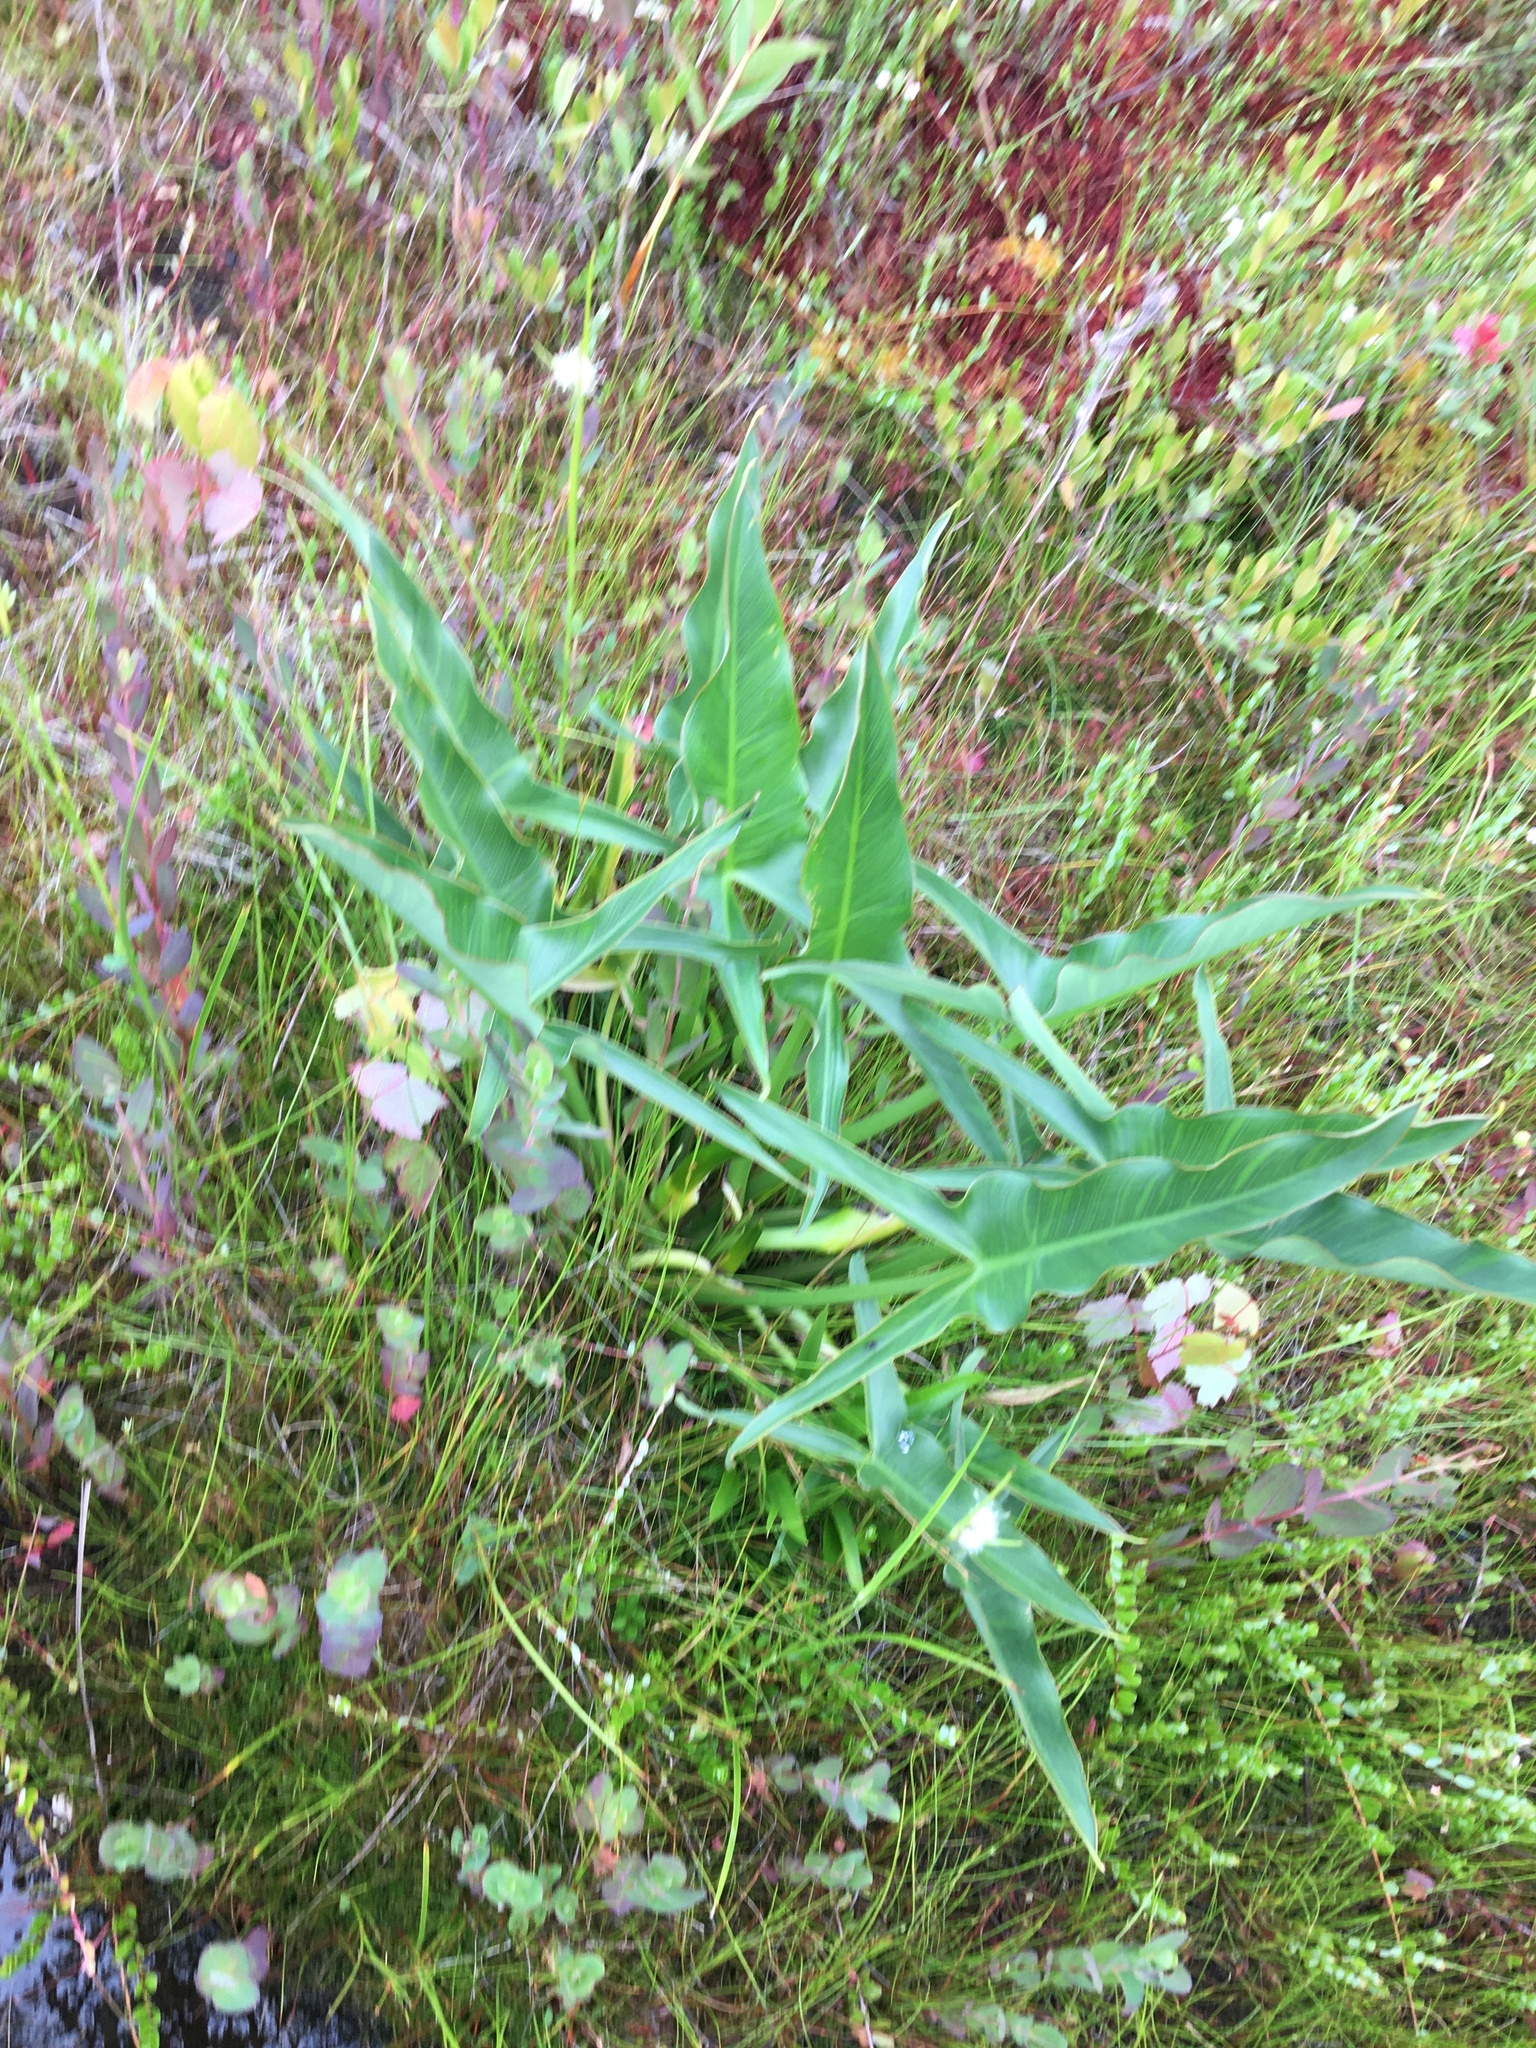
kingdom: Plantae
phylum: Tracheophyta
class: Liliopsida
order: Alismatales
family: Araceae
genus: Peltandra
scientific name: Peltandra virginica
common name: Arrow arum
